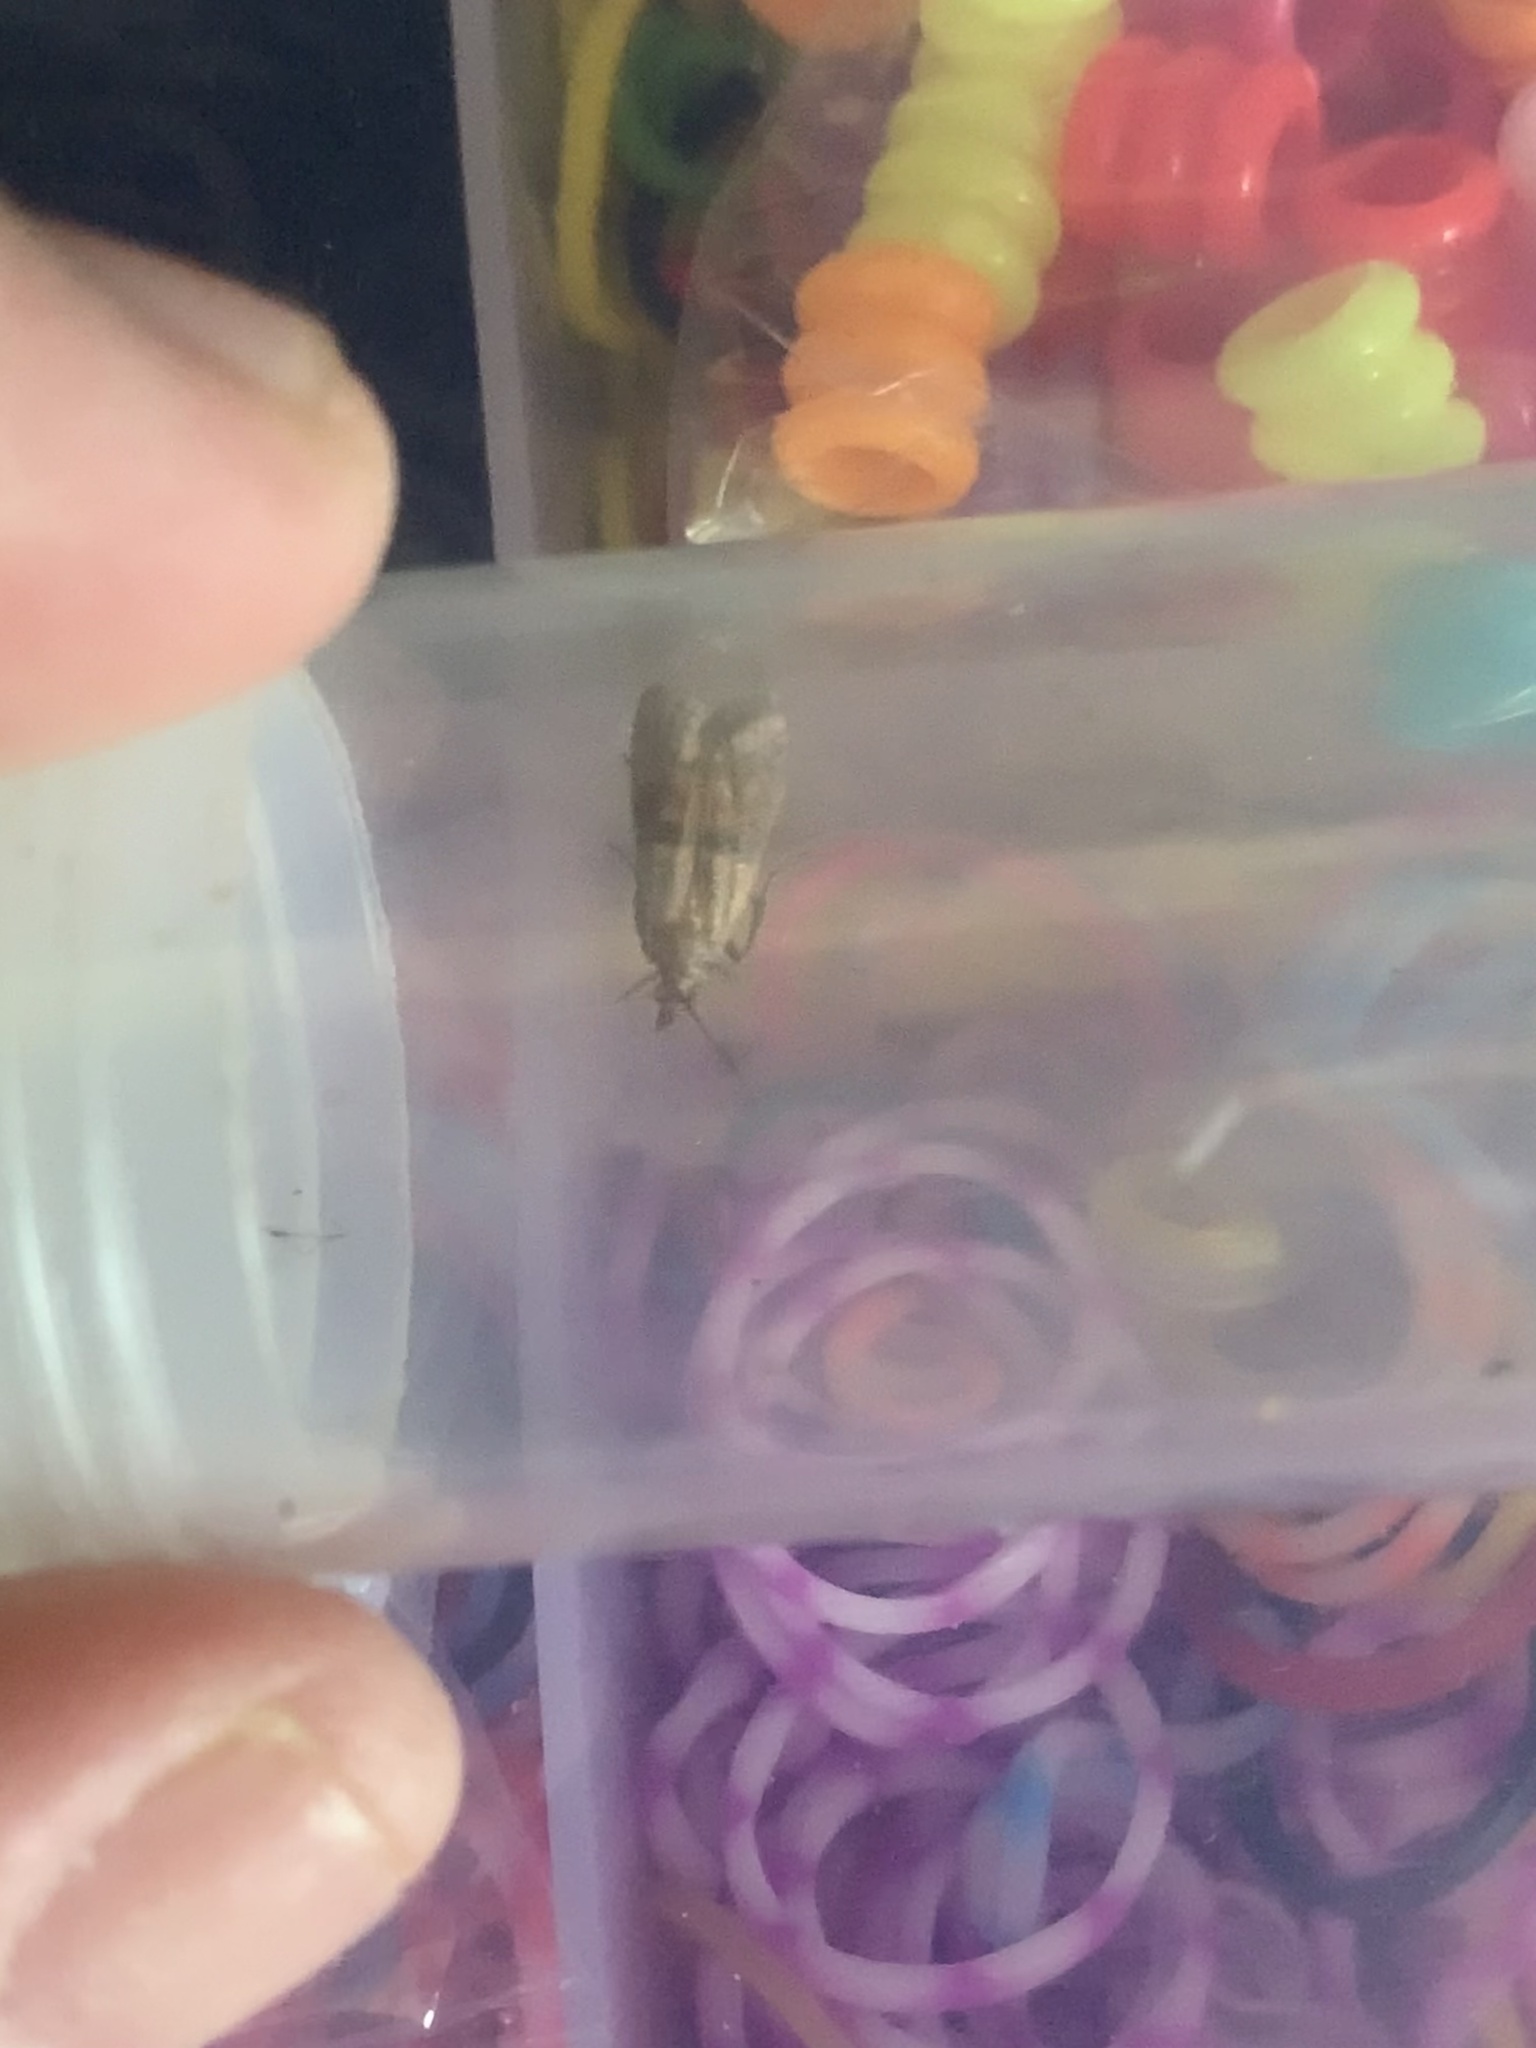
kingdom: Animalia
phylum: Arthropoda
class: Insecta
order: Lepidoptera
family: Pyralidae
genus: Plodia
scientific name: Plodia interpunctella
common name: Indian meal moth
